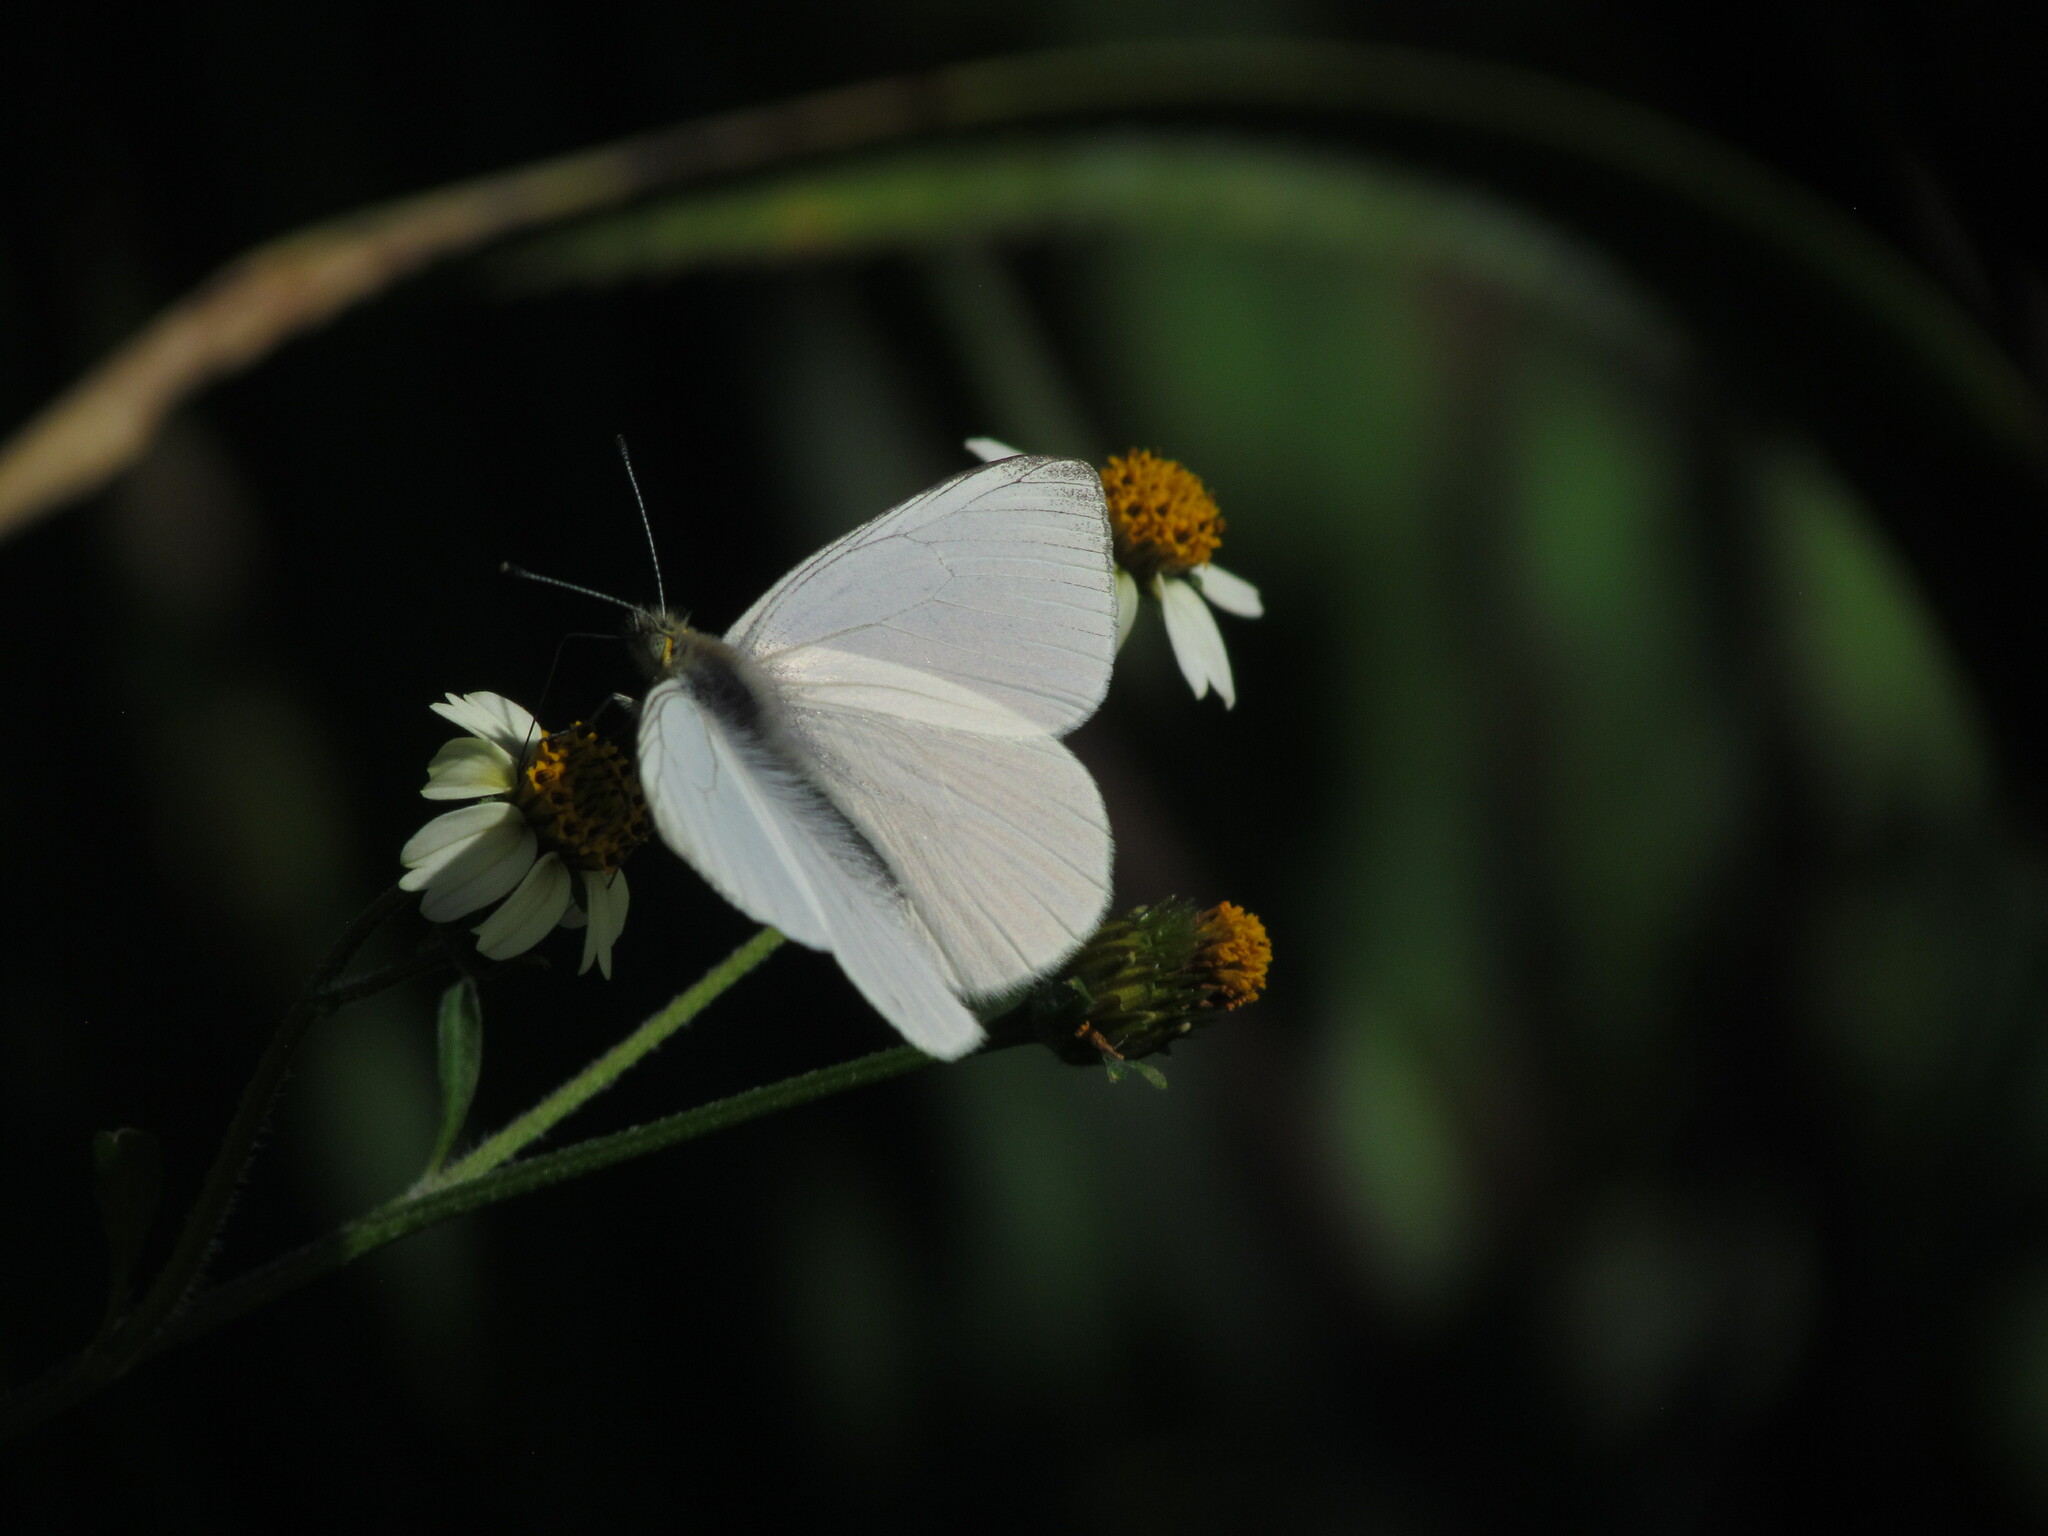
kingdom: Animalia
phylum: Arthropoda
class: Insecta
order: Lepidoptera
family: Pieridae
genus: Theochila
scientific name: Theochila maenacte
